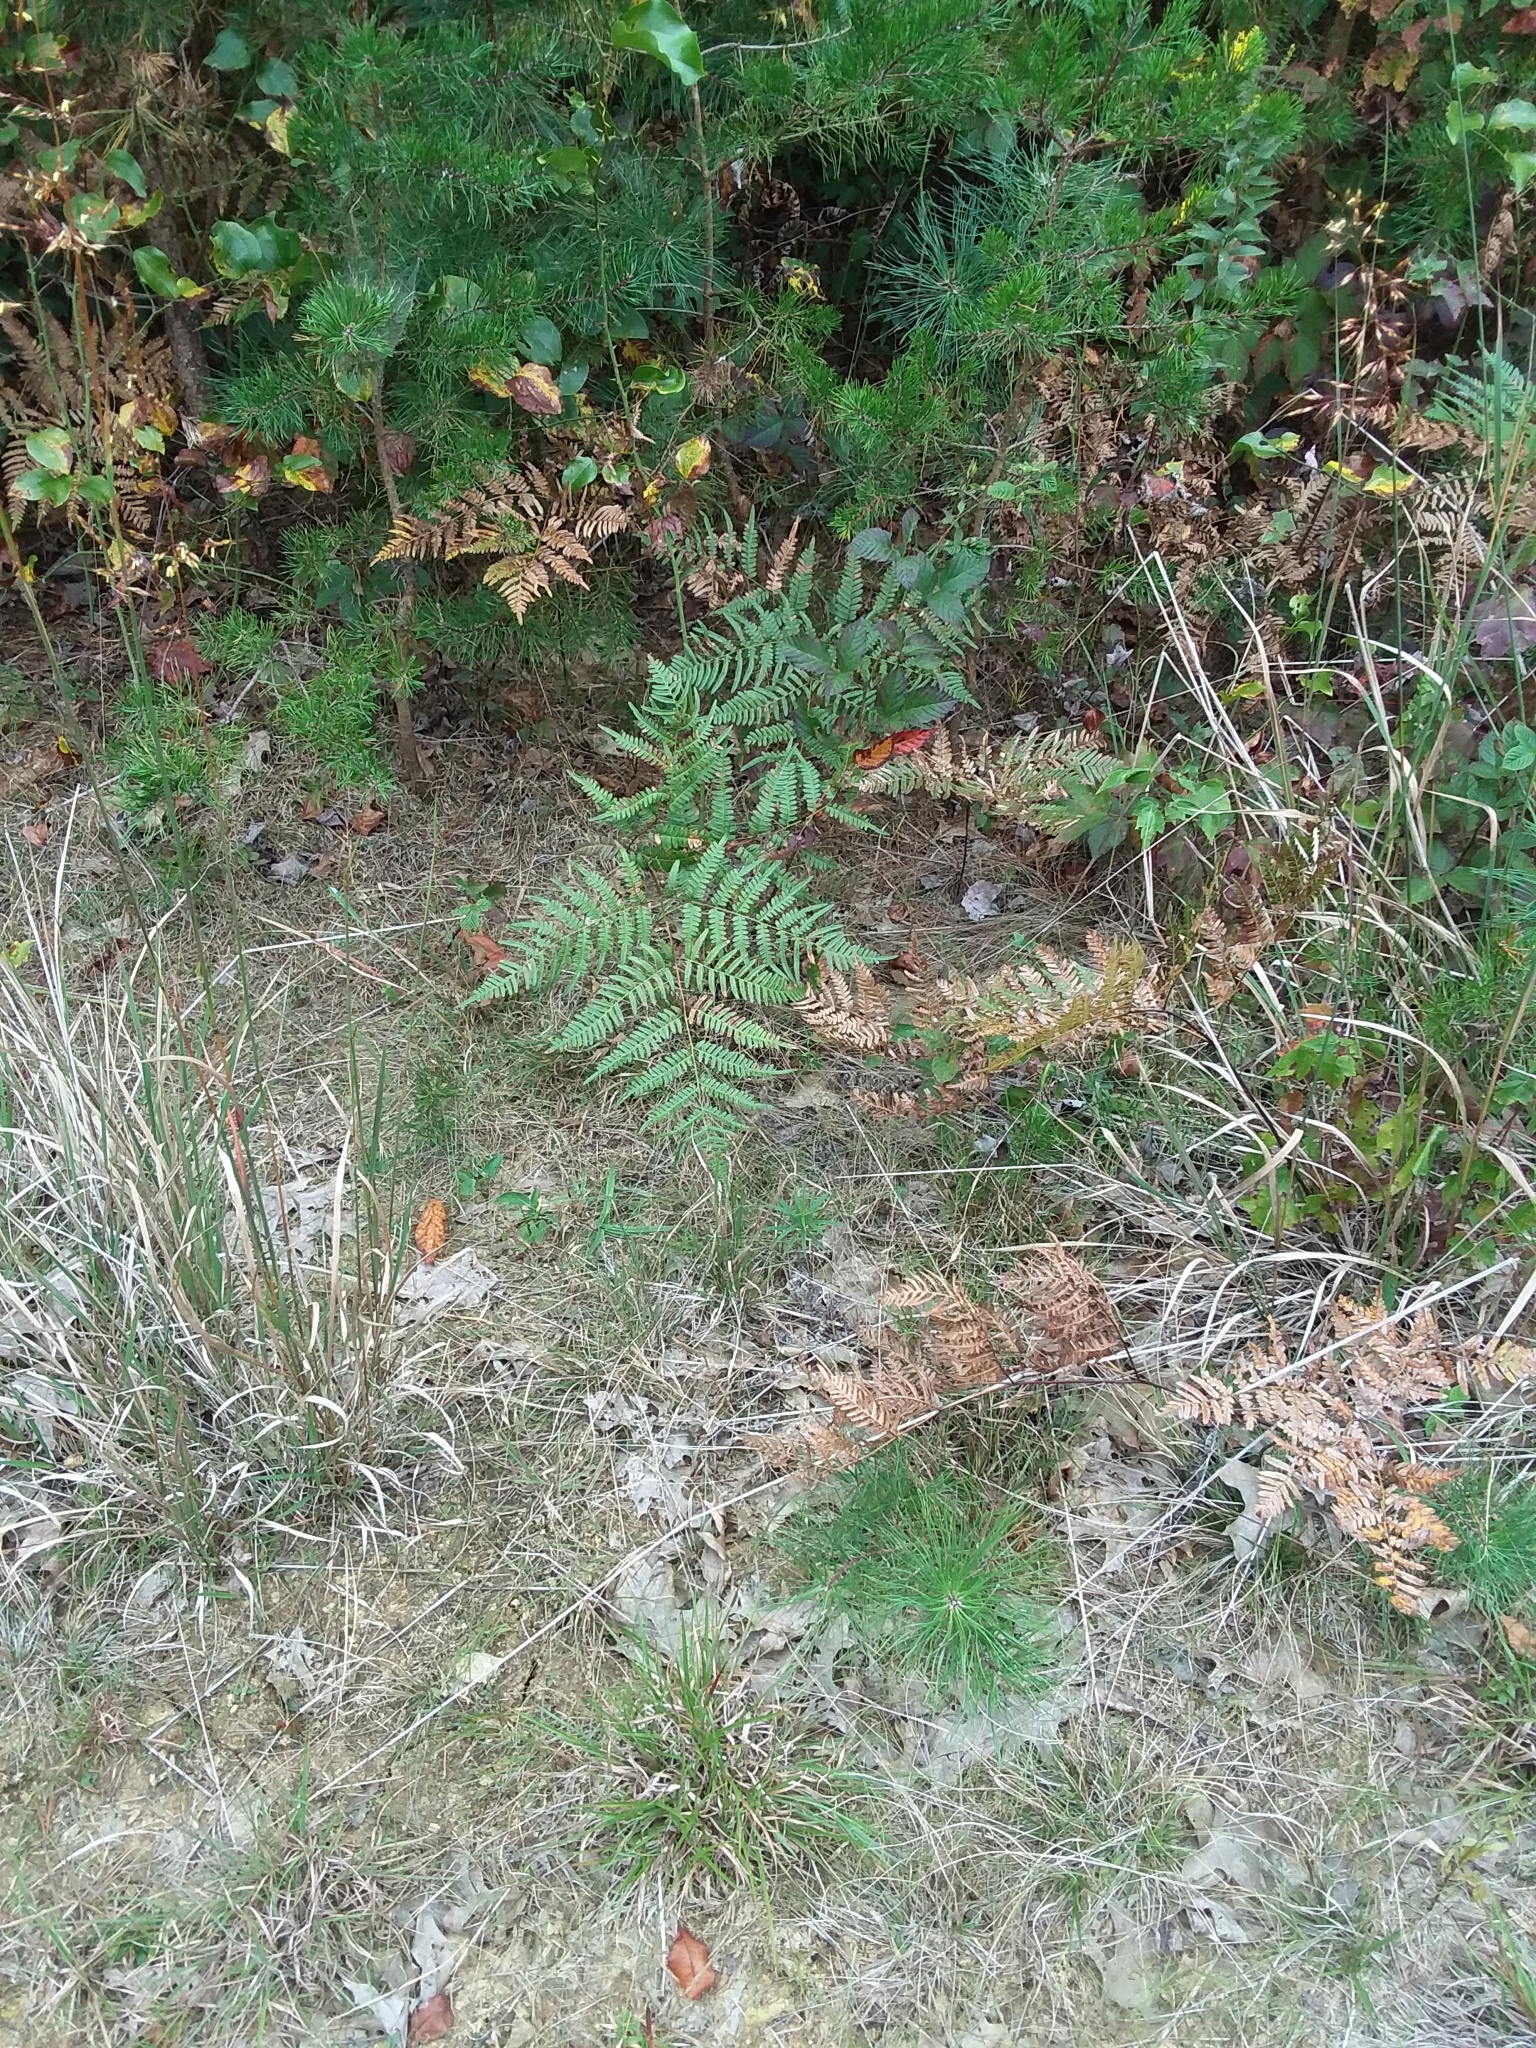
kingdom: Plantae
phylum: Tracheophyta
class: Polypodiopsida
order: Polypodiales
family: Dennstaedtiaceae
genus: Pteridium
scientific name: Pteridium aquilinum
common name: Bracken
